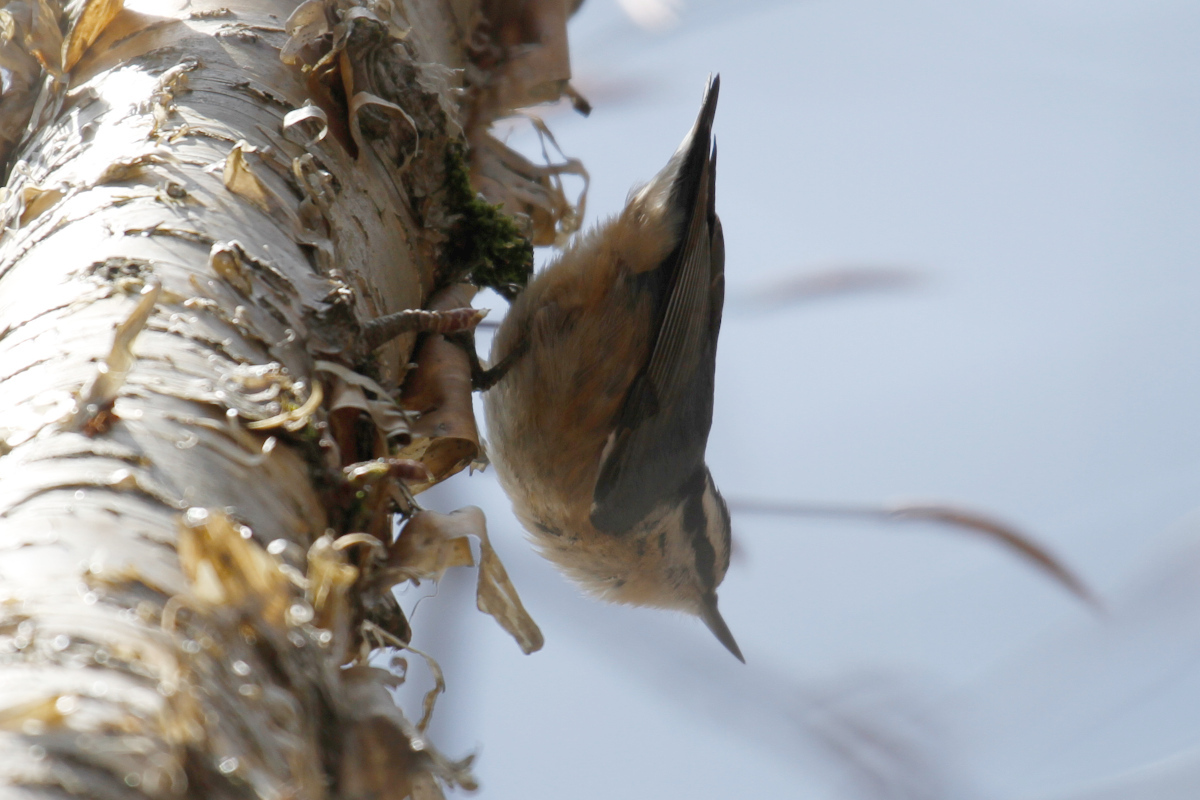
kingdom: Animalia
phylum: Chordata
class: Aves
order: Passeriformes
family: Sittidae
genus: Sitta
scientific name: Sitta canadensis
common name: Red-breasted nuthatch
